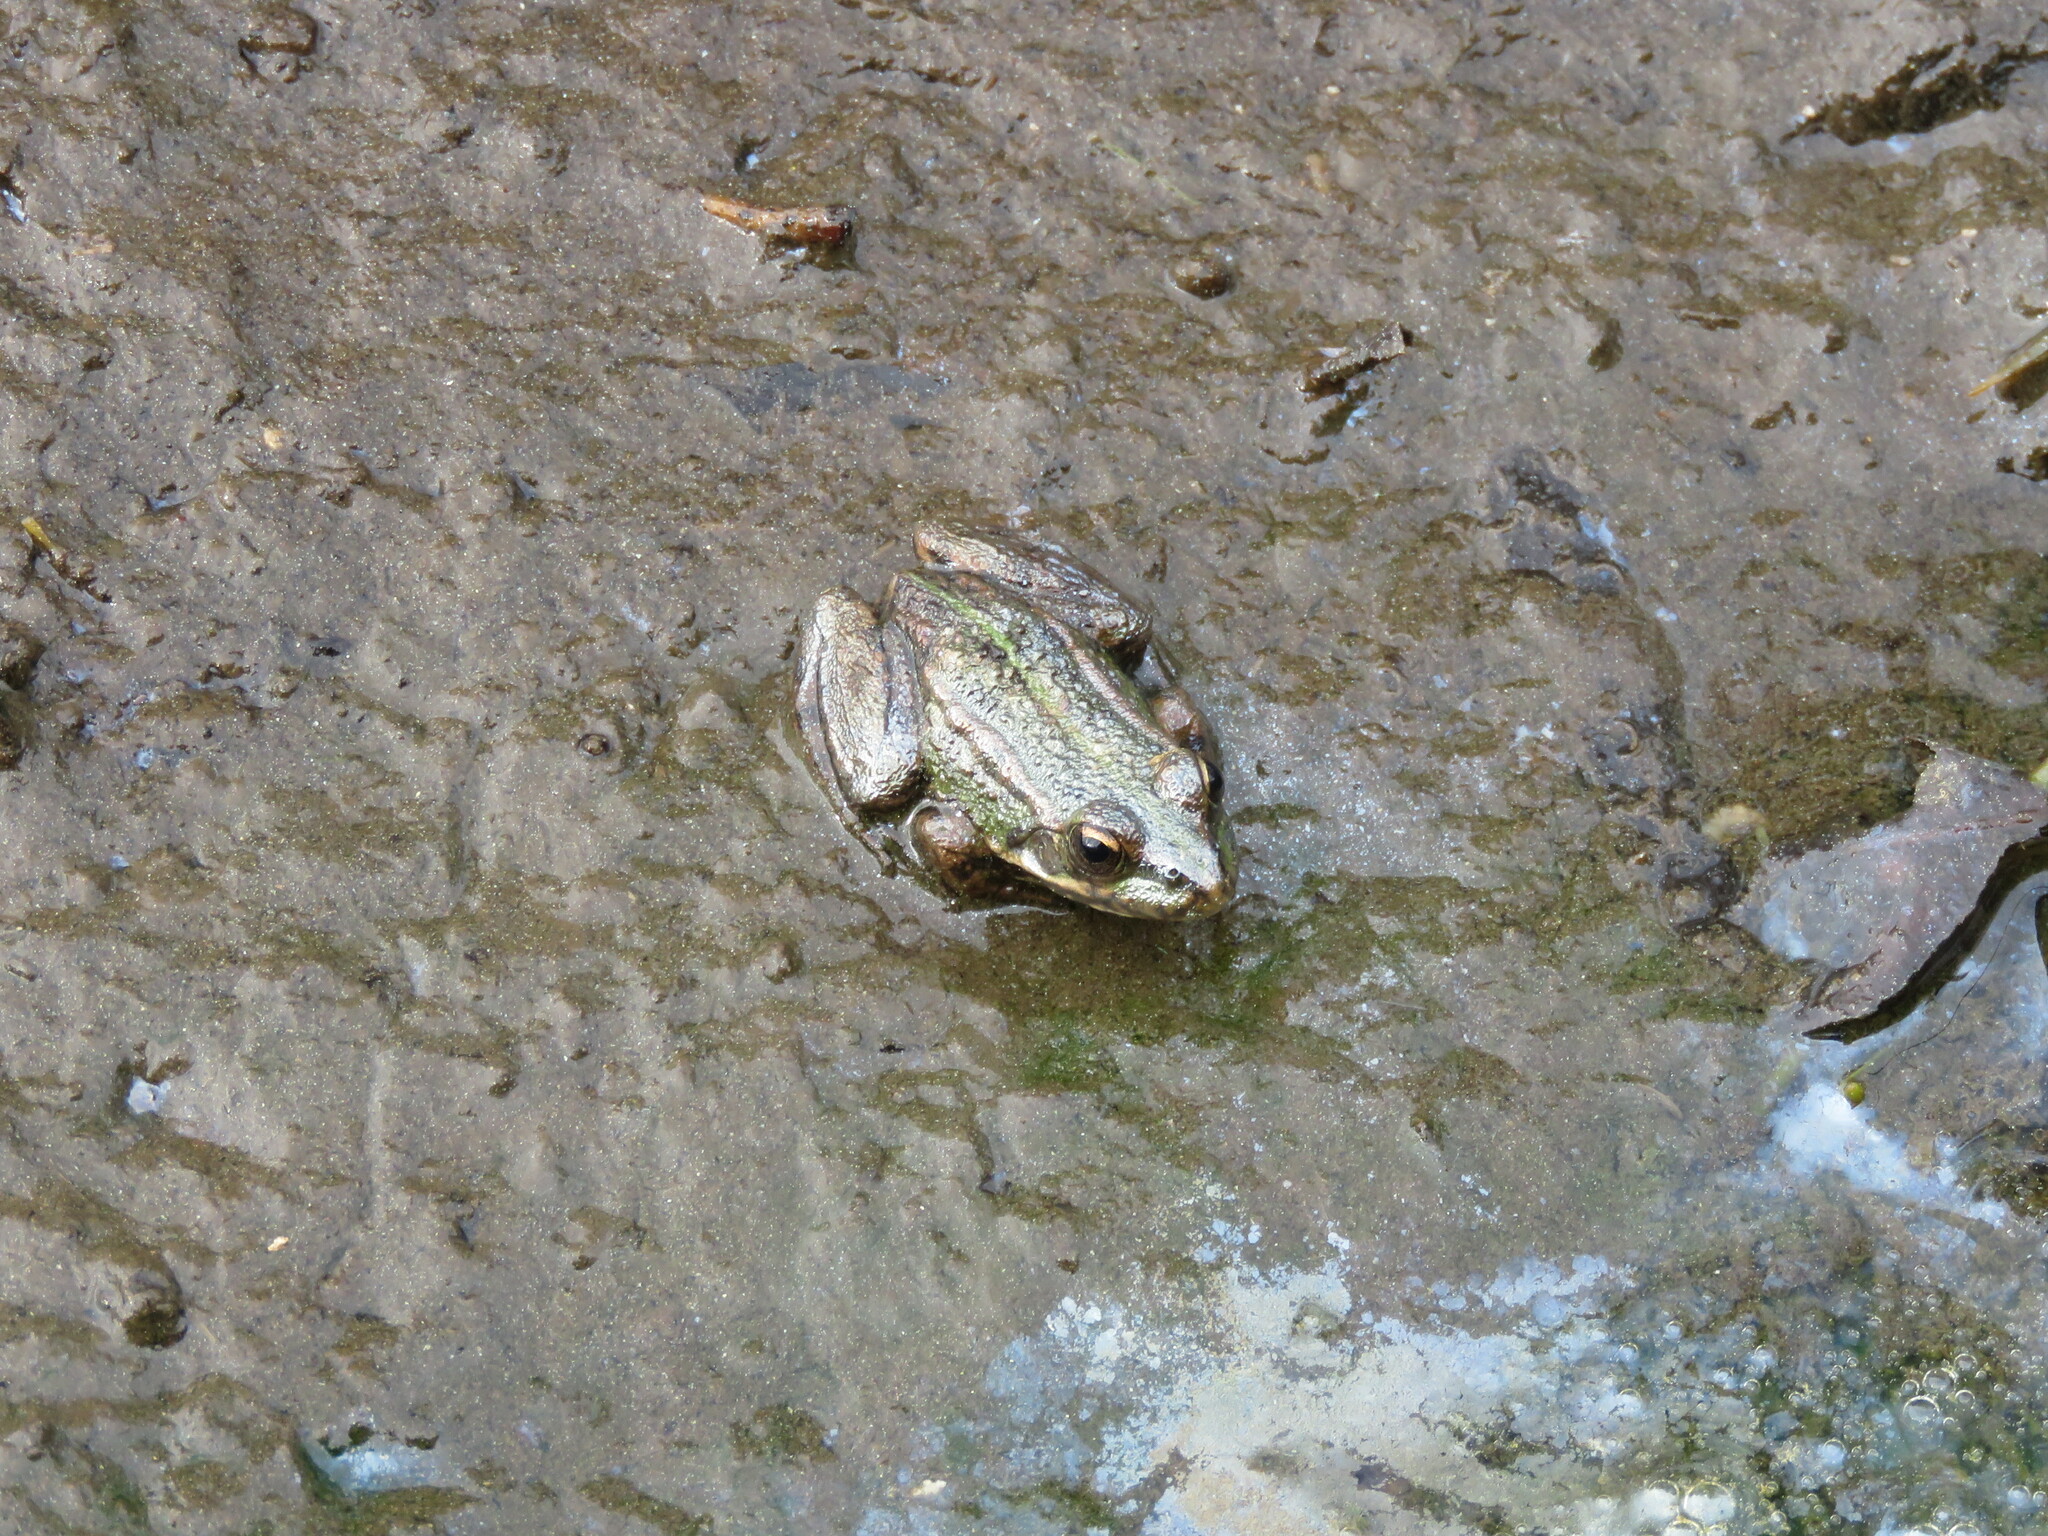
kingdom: Animalia
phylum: Chordata
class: Amphibia
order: Anura
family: Ranidae
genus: Pelophylax
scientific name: Pelophylax perezi
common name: Perez's frog
